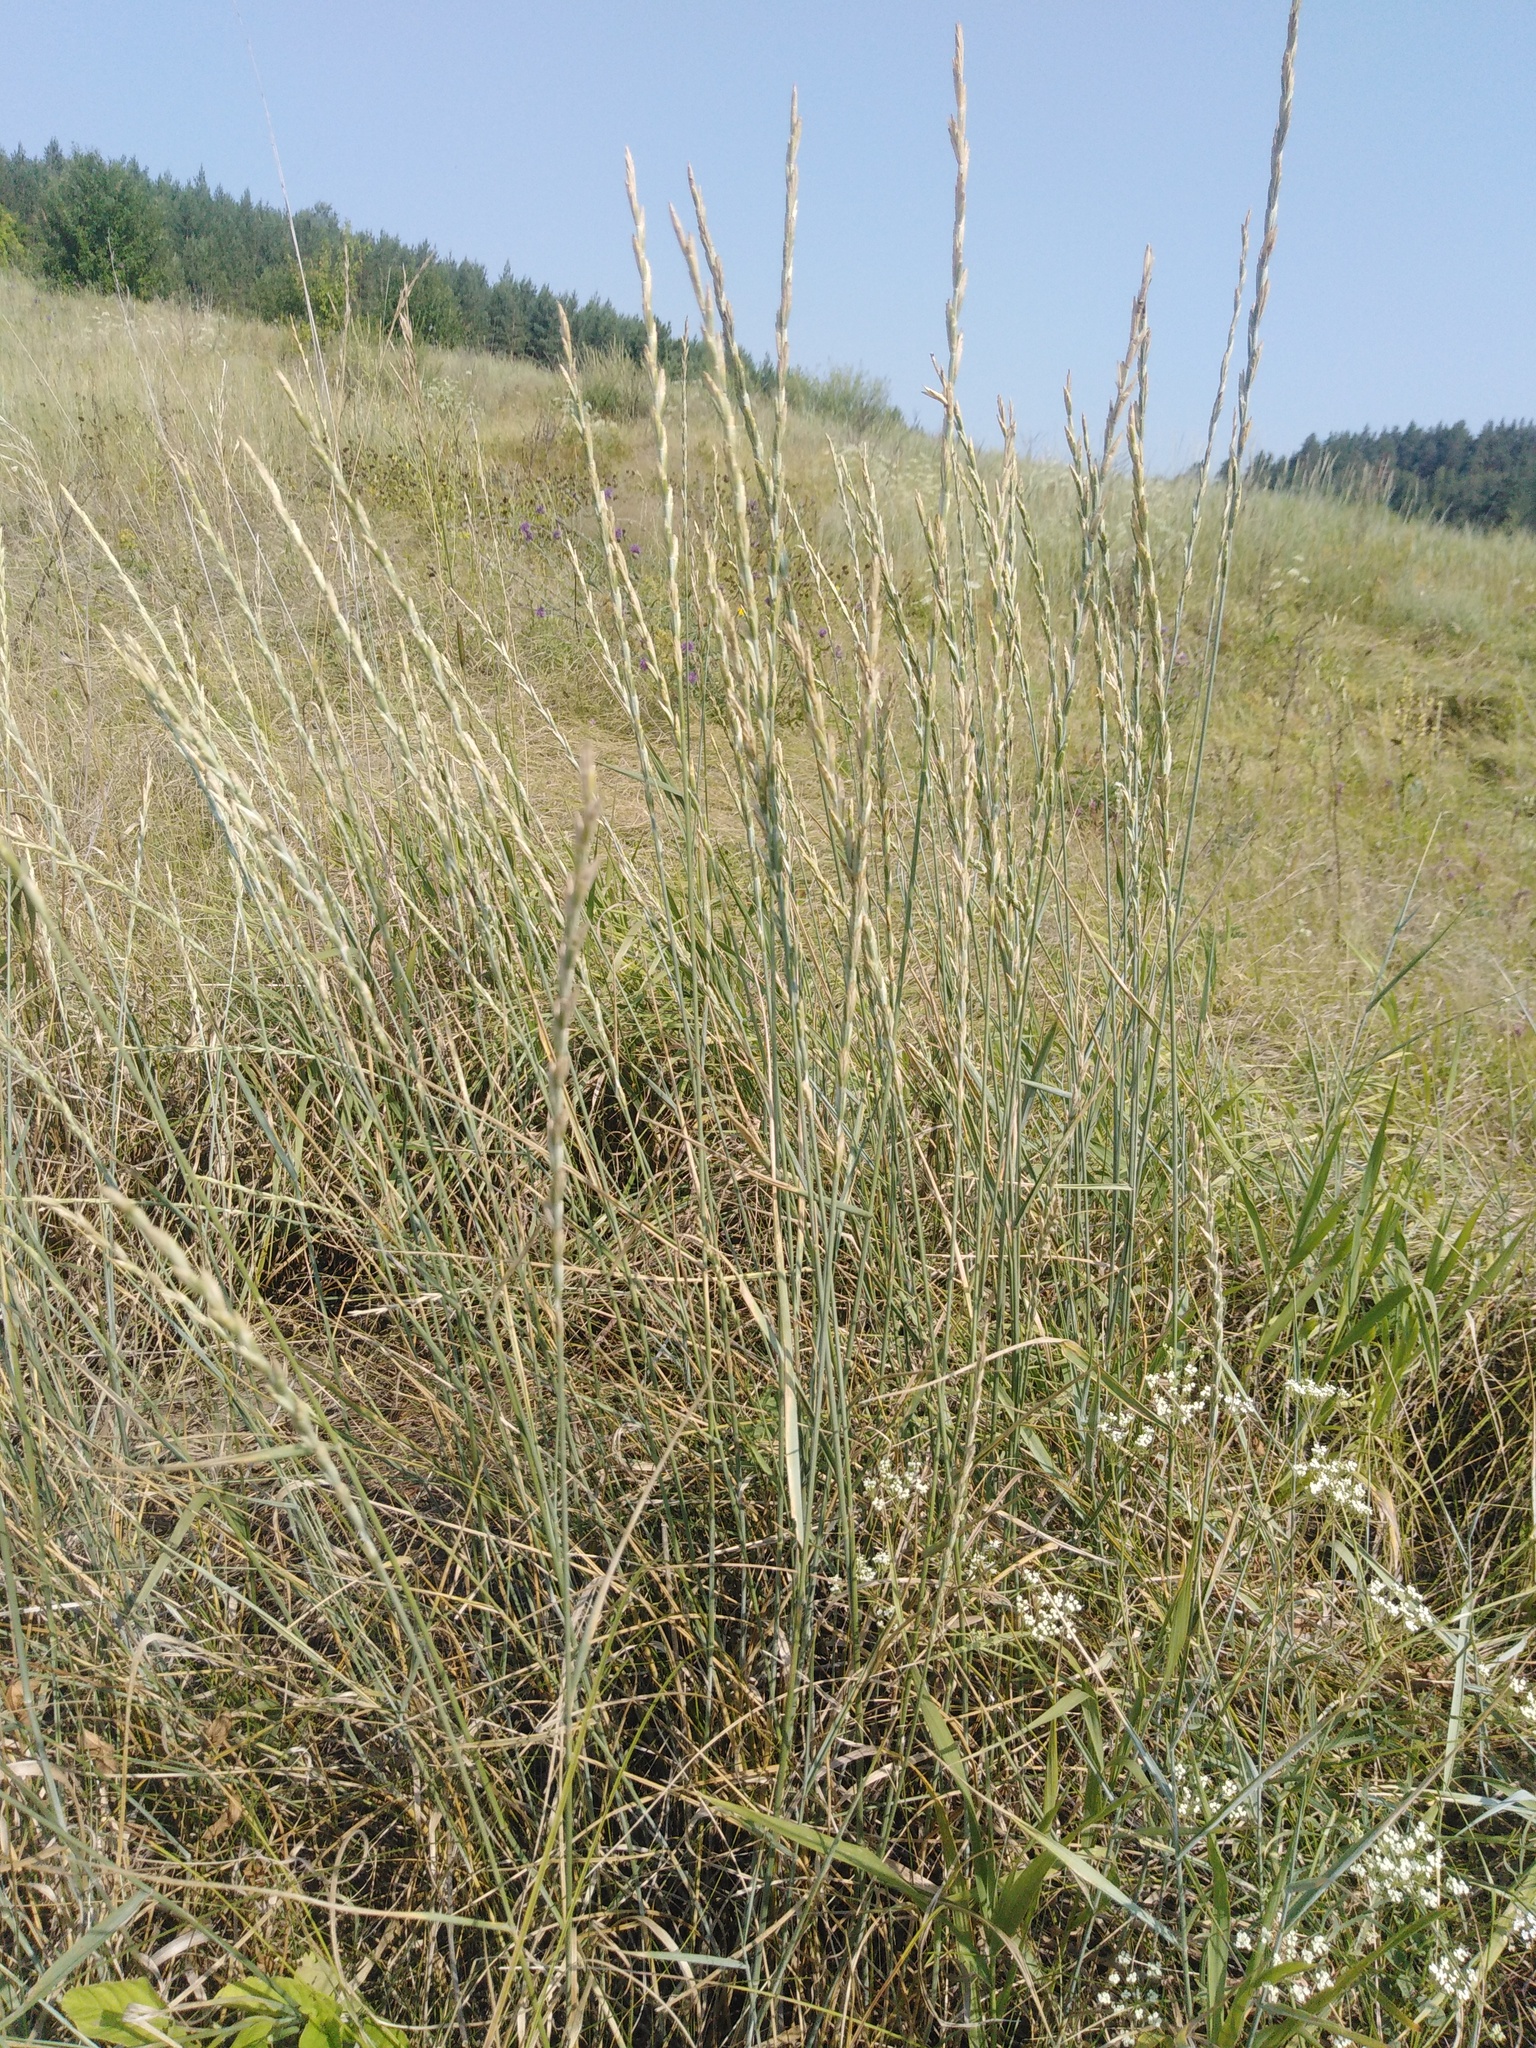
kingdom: Plantae
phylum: Tracheophyta
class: Liliopsida
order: Poales
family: Poaceae
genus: Thinopyrum
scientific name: Thinopyrum intermedium
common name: Intermediate wheatgrass
